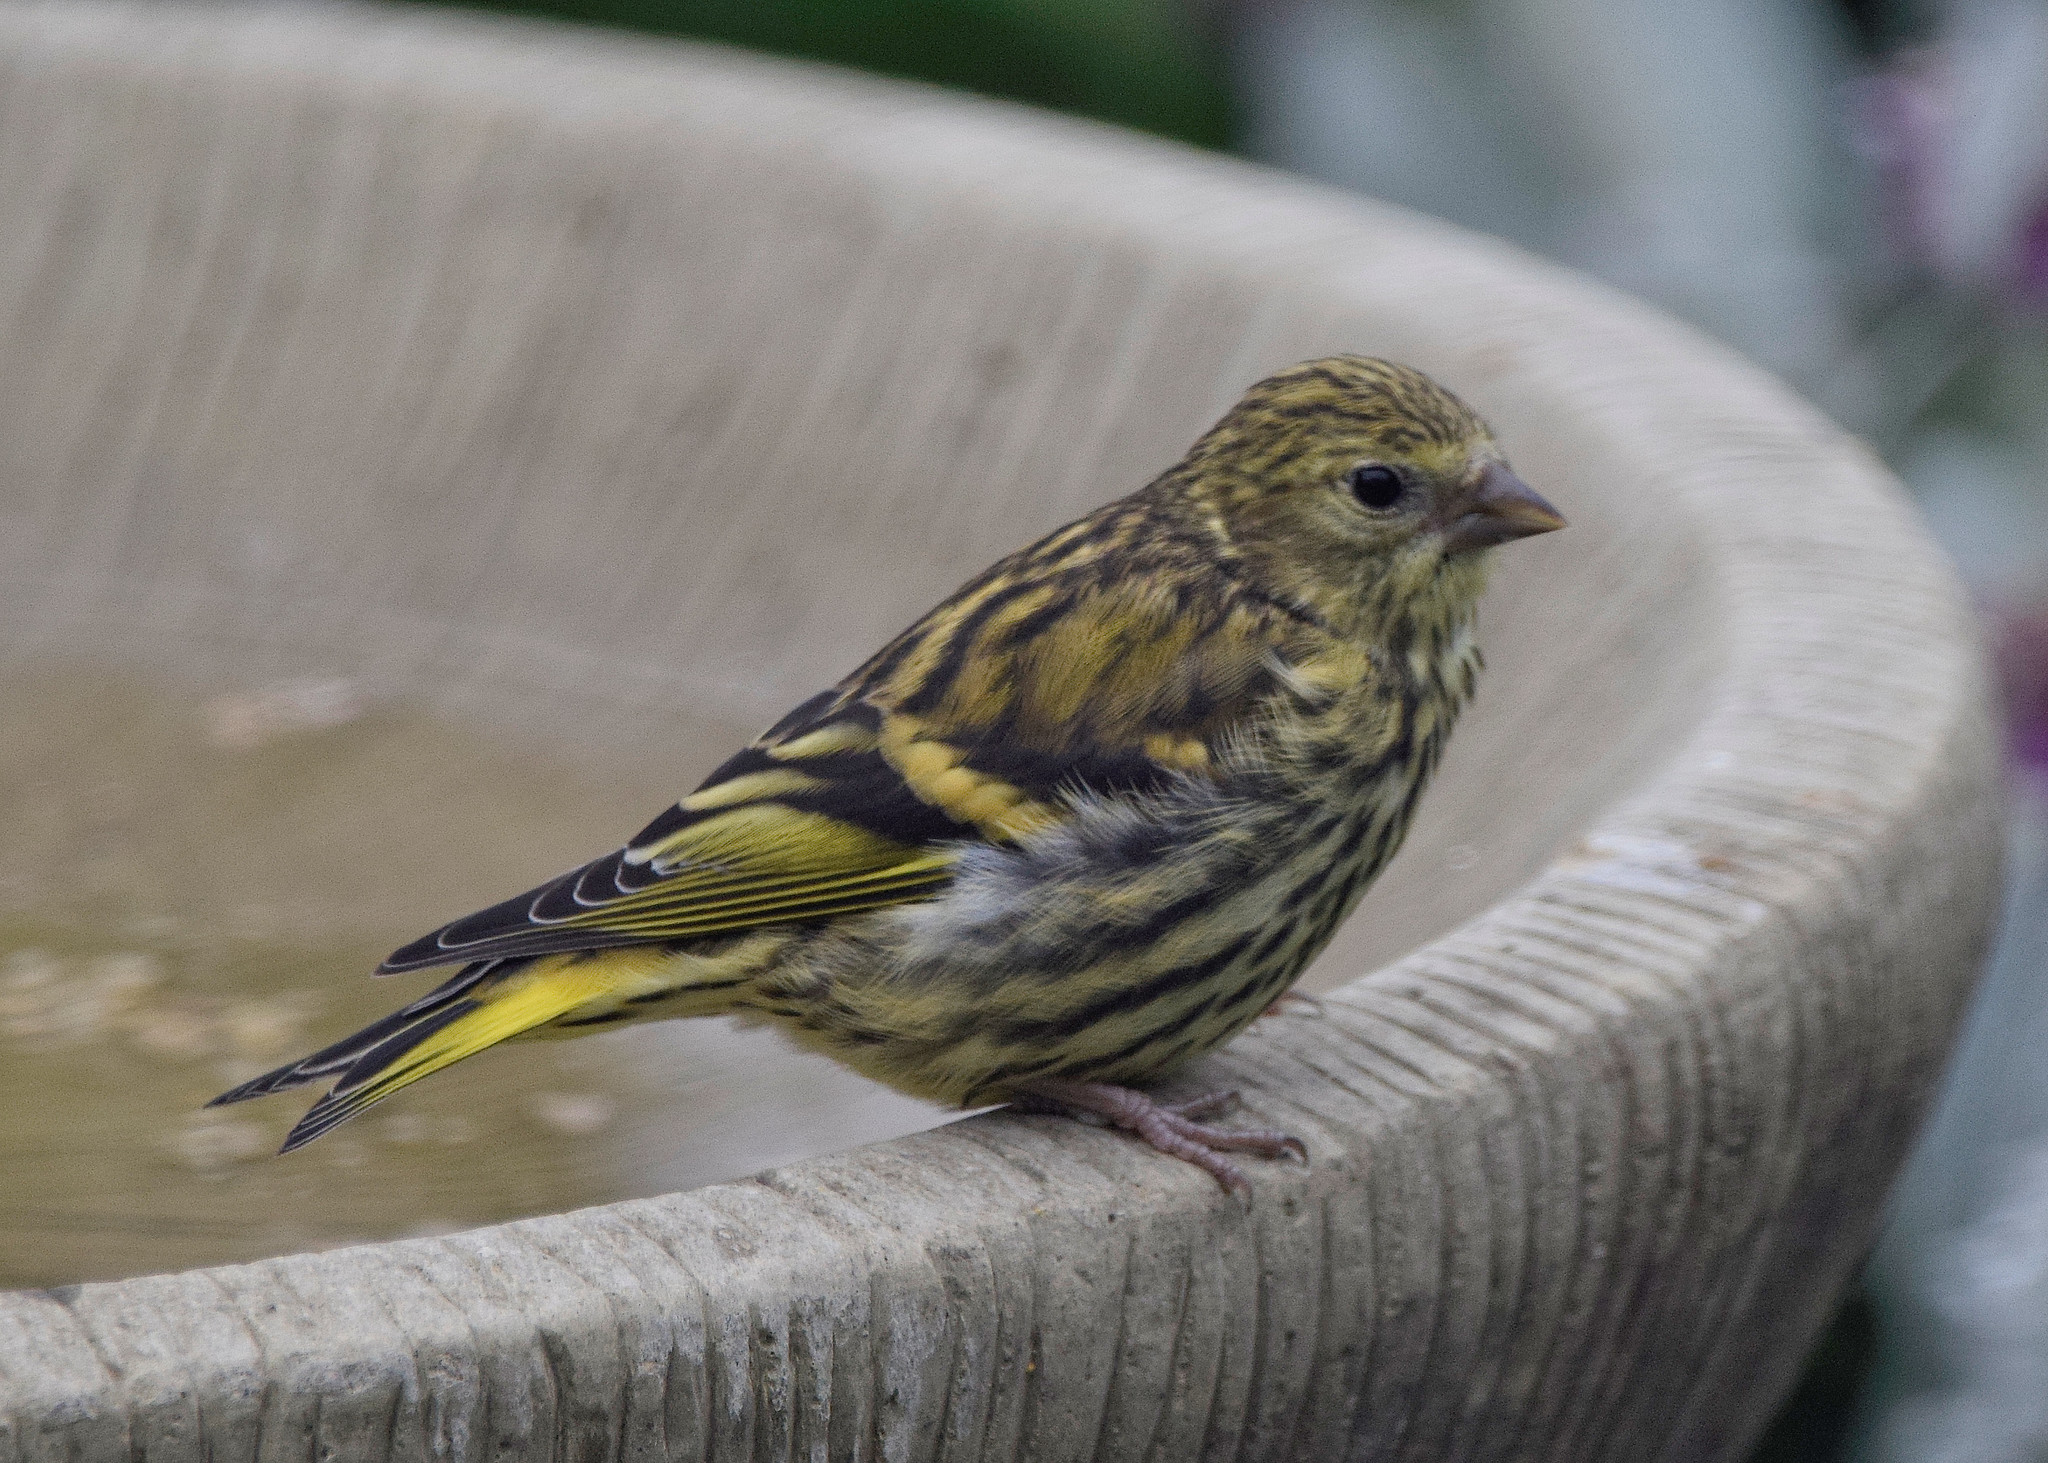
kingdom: Animalia
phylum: Chordata
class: Aves
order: Passeriformes
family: Fringillidae
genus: Spinus
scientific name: Spinus spinus
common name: Eurasian siskin
